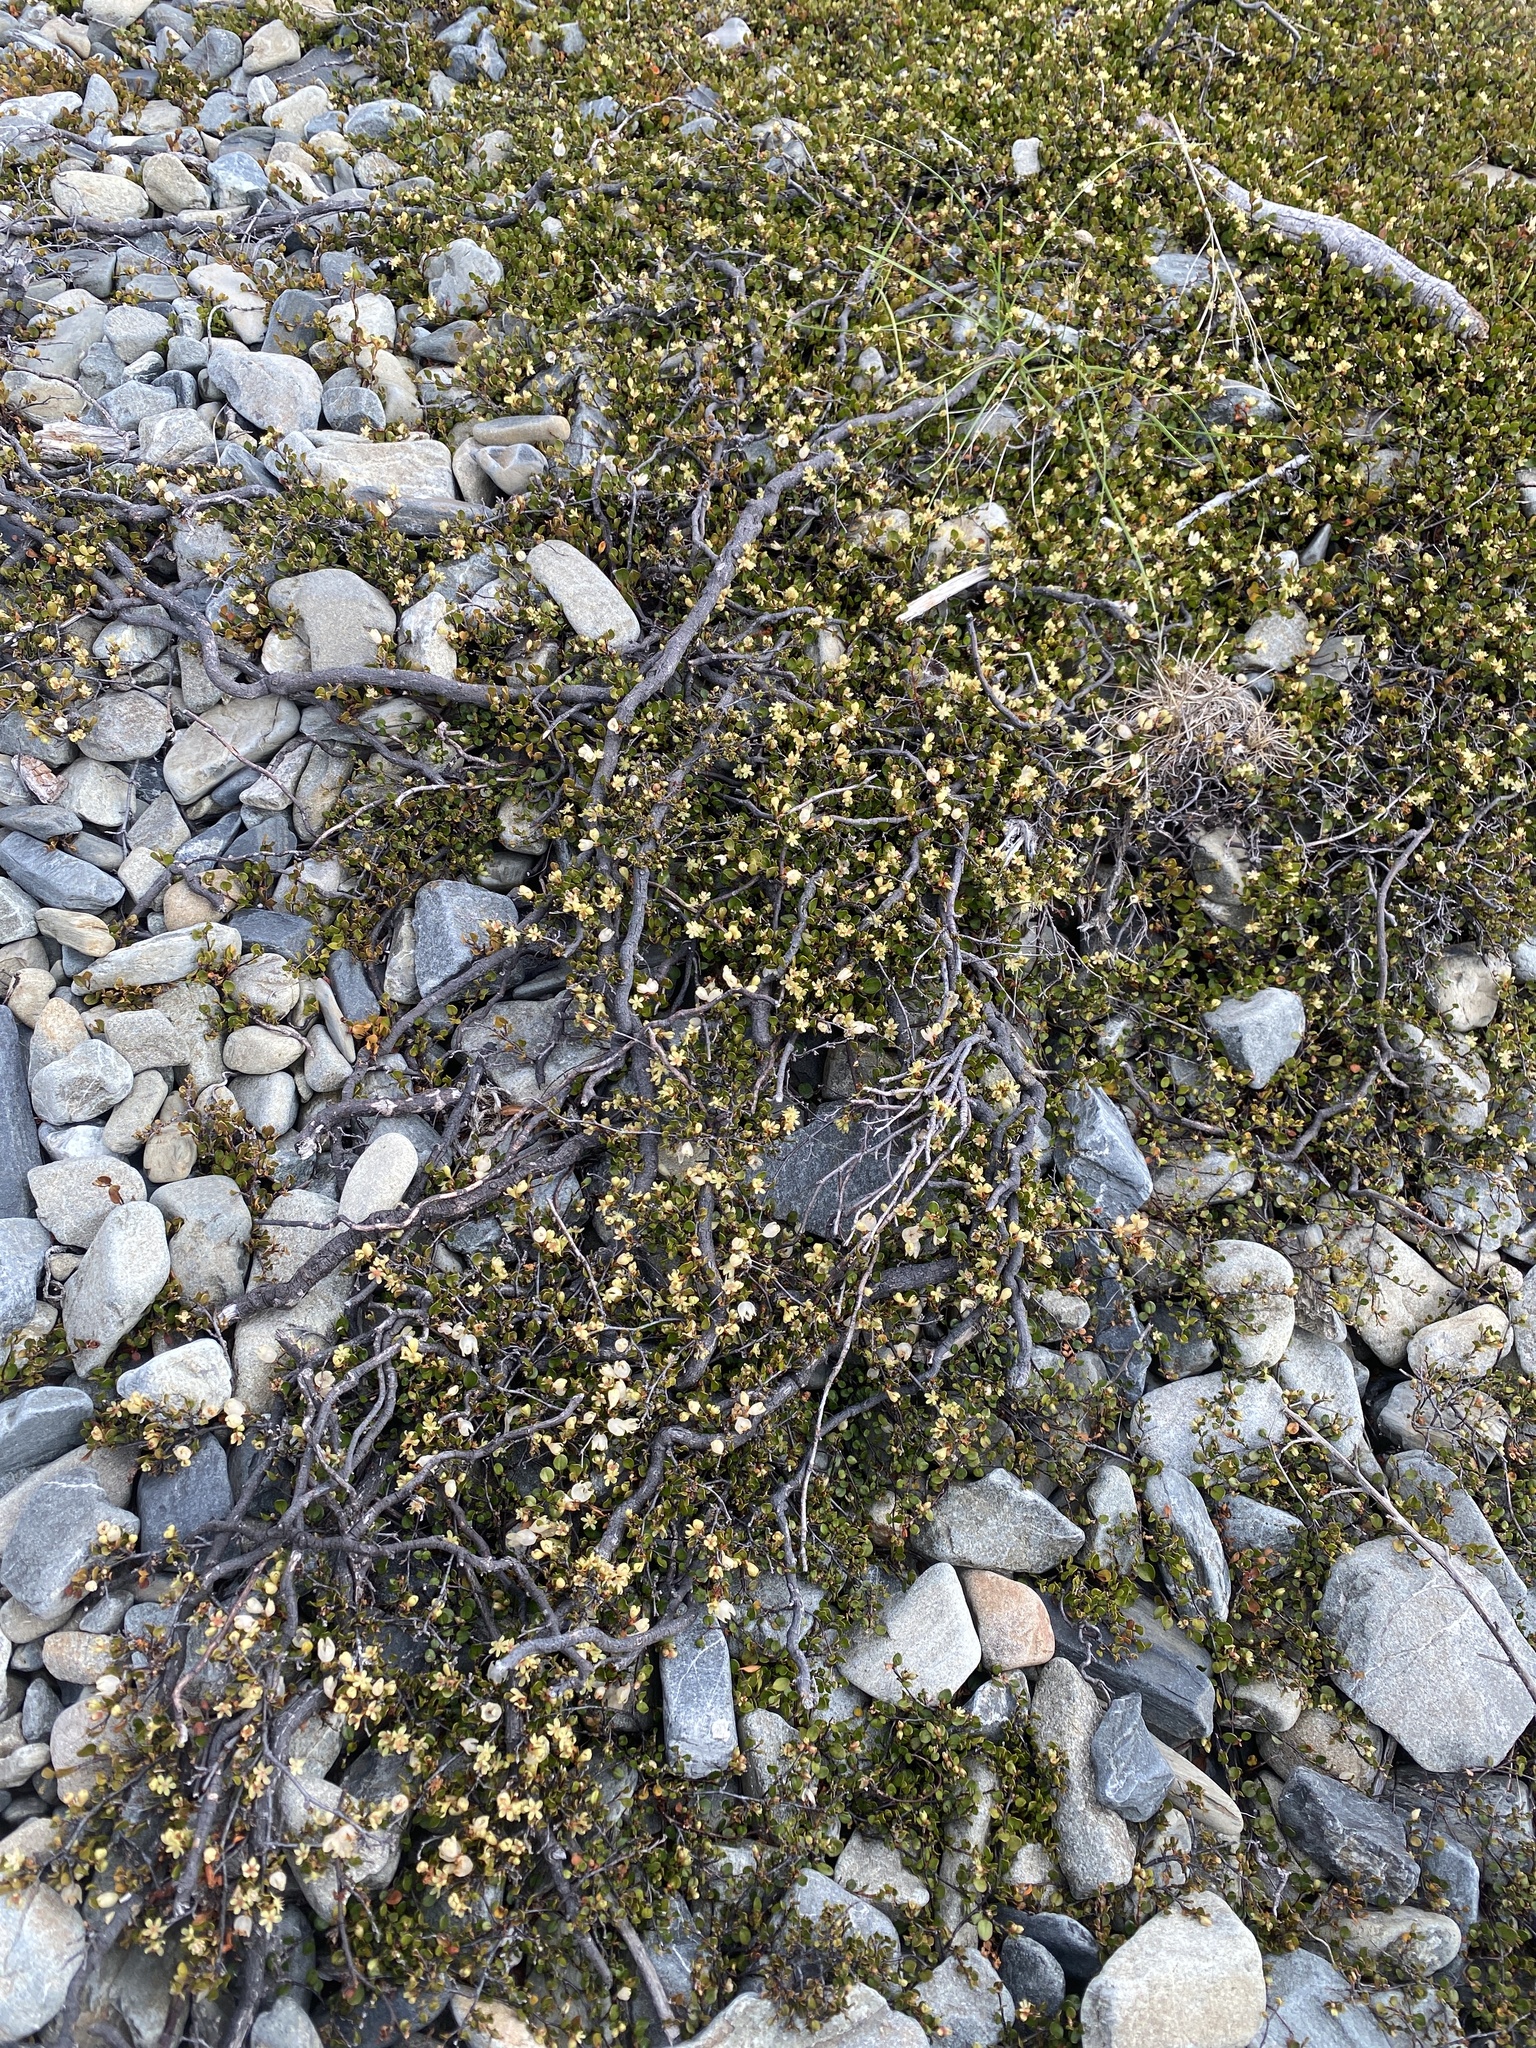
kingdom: Plantae
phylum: Tracheophyta
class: Magnoliopsida
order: Caryophyllales
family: Polygonaceae
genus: Muehlenbeckia
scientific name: Muehlenbeckia axillaris
